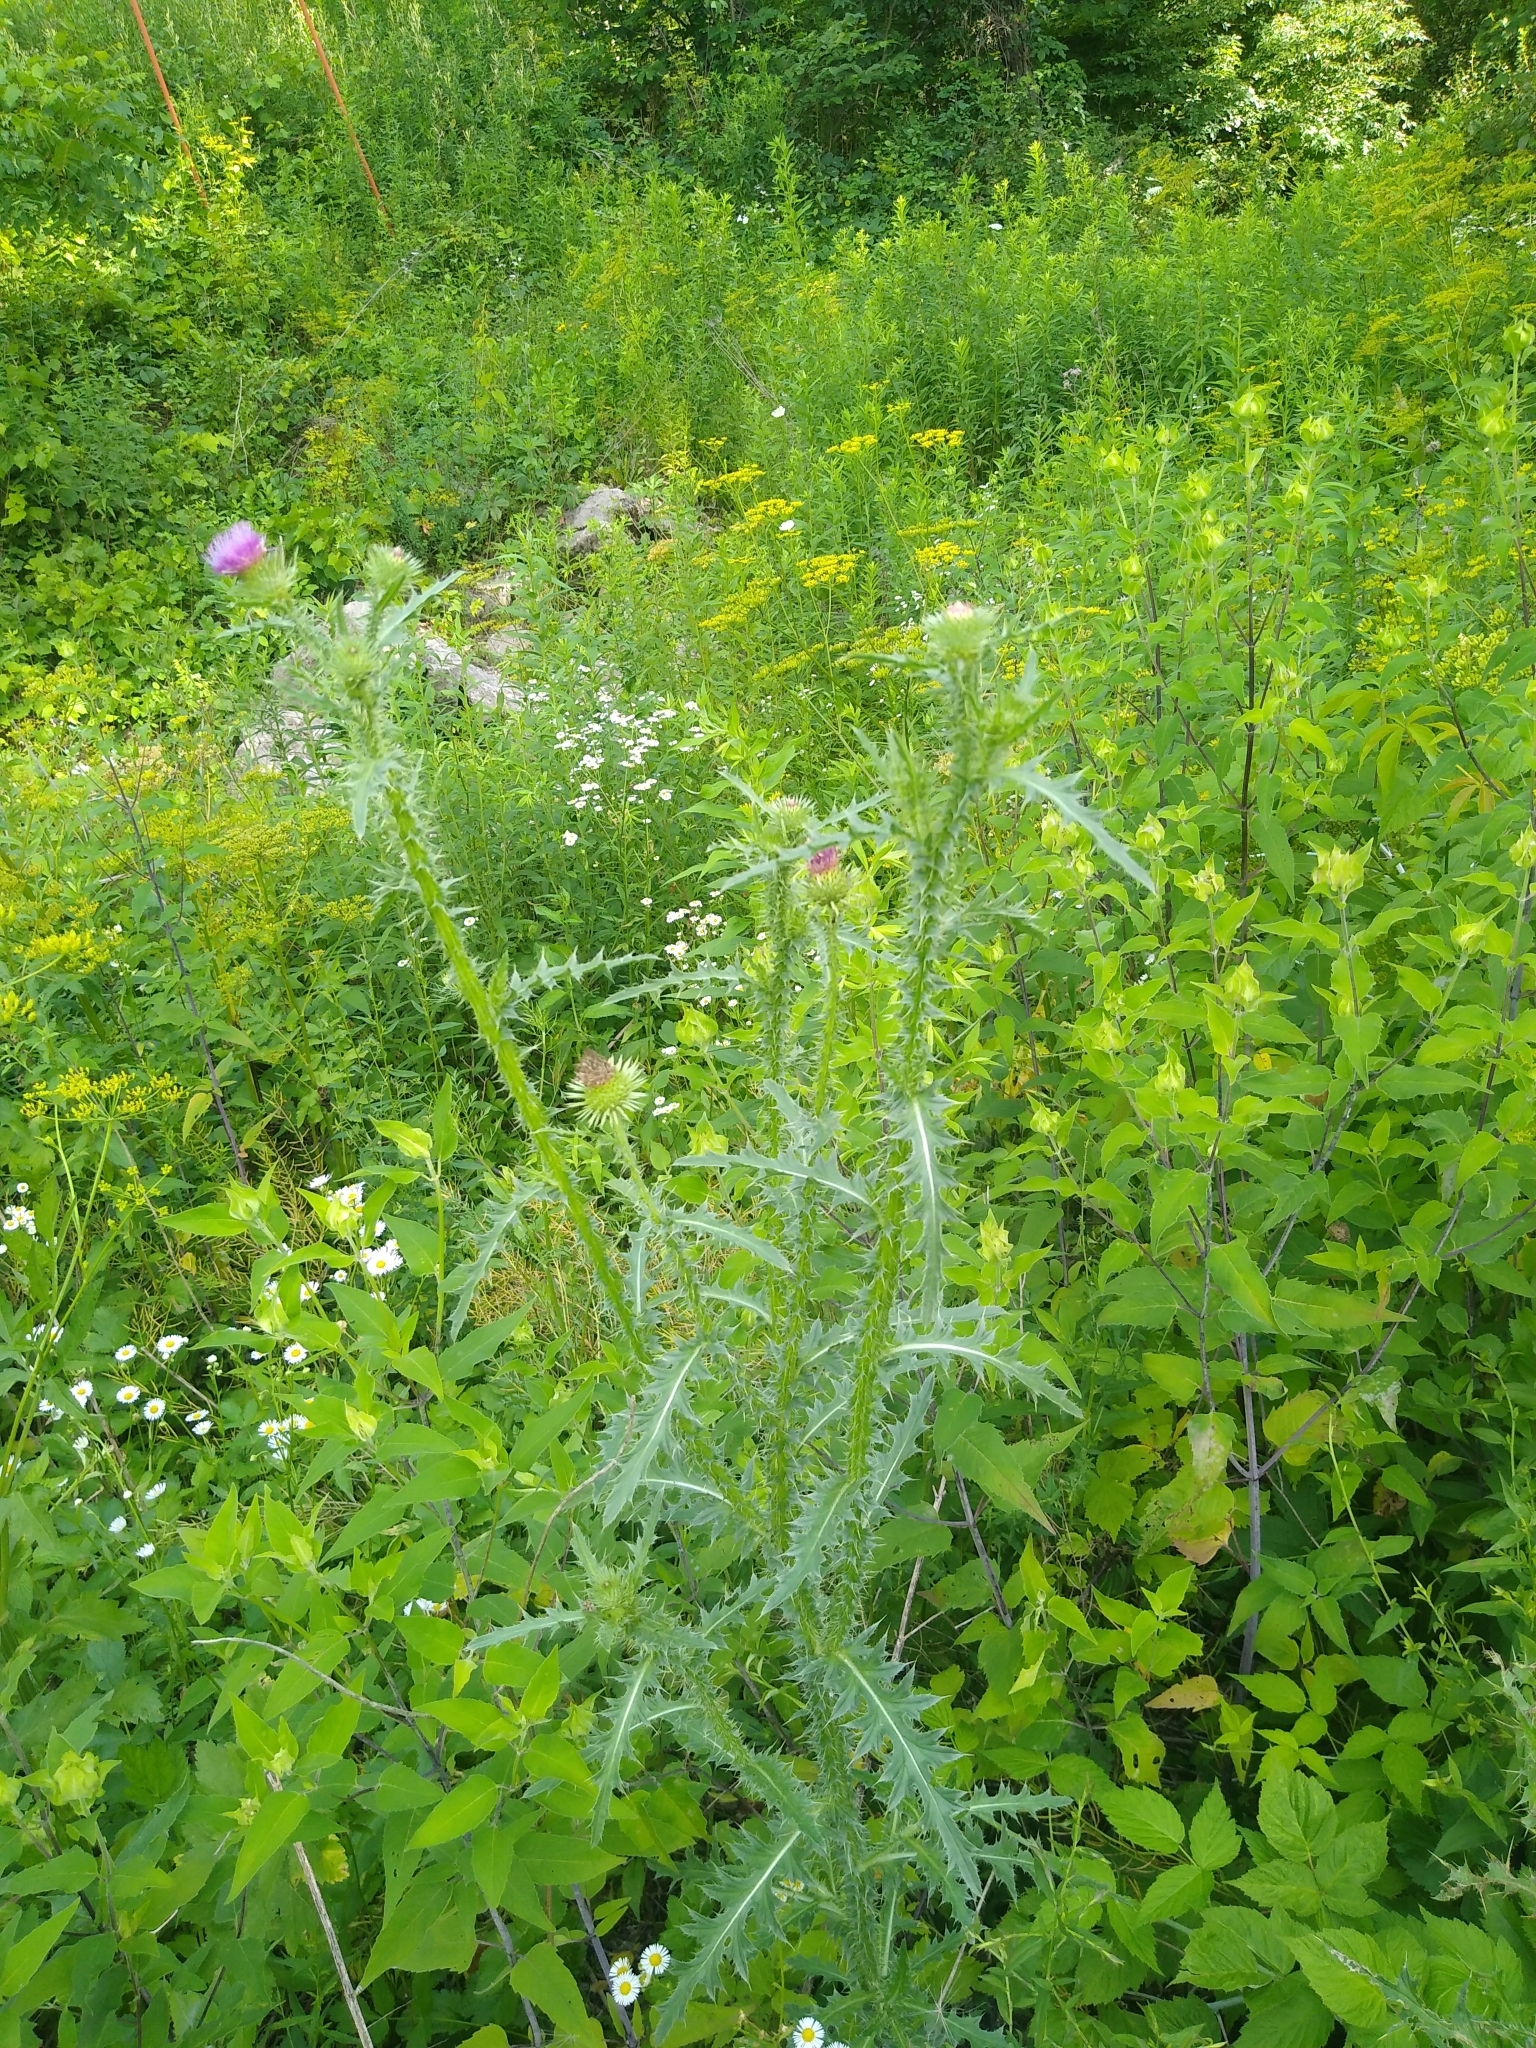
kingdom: Plantae
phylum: Tracheophyta
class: Magnoliopsida
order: Asterales
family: Asteraceae
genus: Carduus
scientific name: Carduus acanthoides
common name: Plumeless thistle
